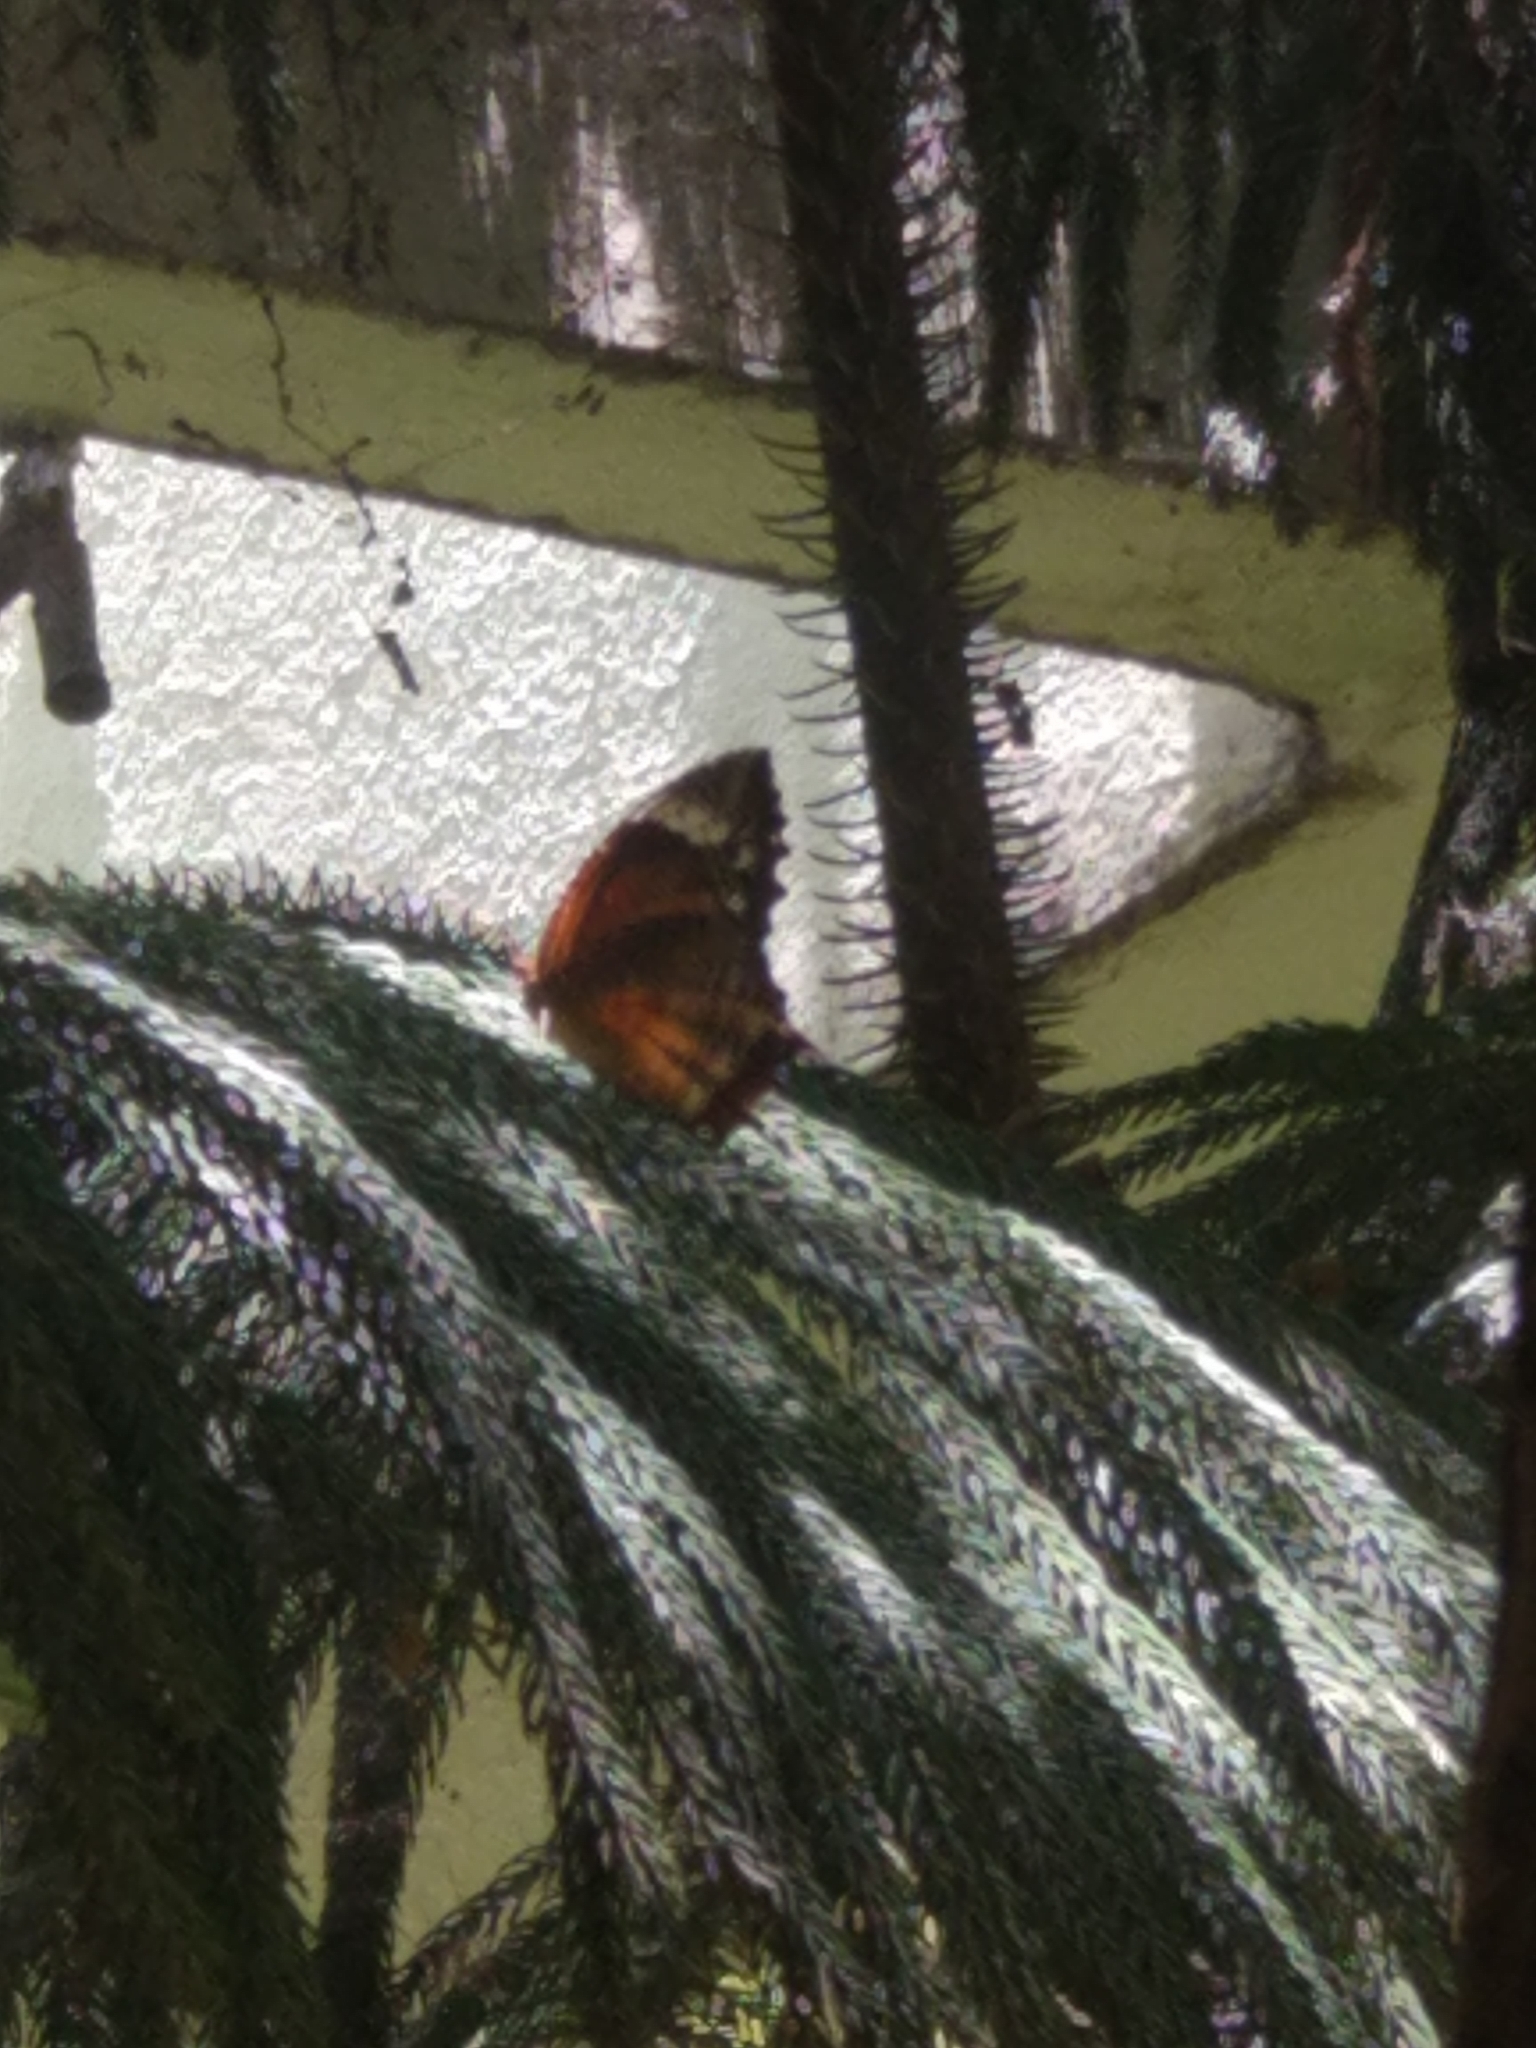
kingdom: Animalia
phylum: Arthropoda
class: Insecta
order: Lepidoptera
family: Nymphalidae
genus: Elymnias
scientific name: Elymnias caudata
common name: Tailed palmfly
